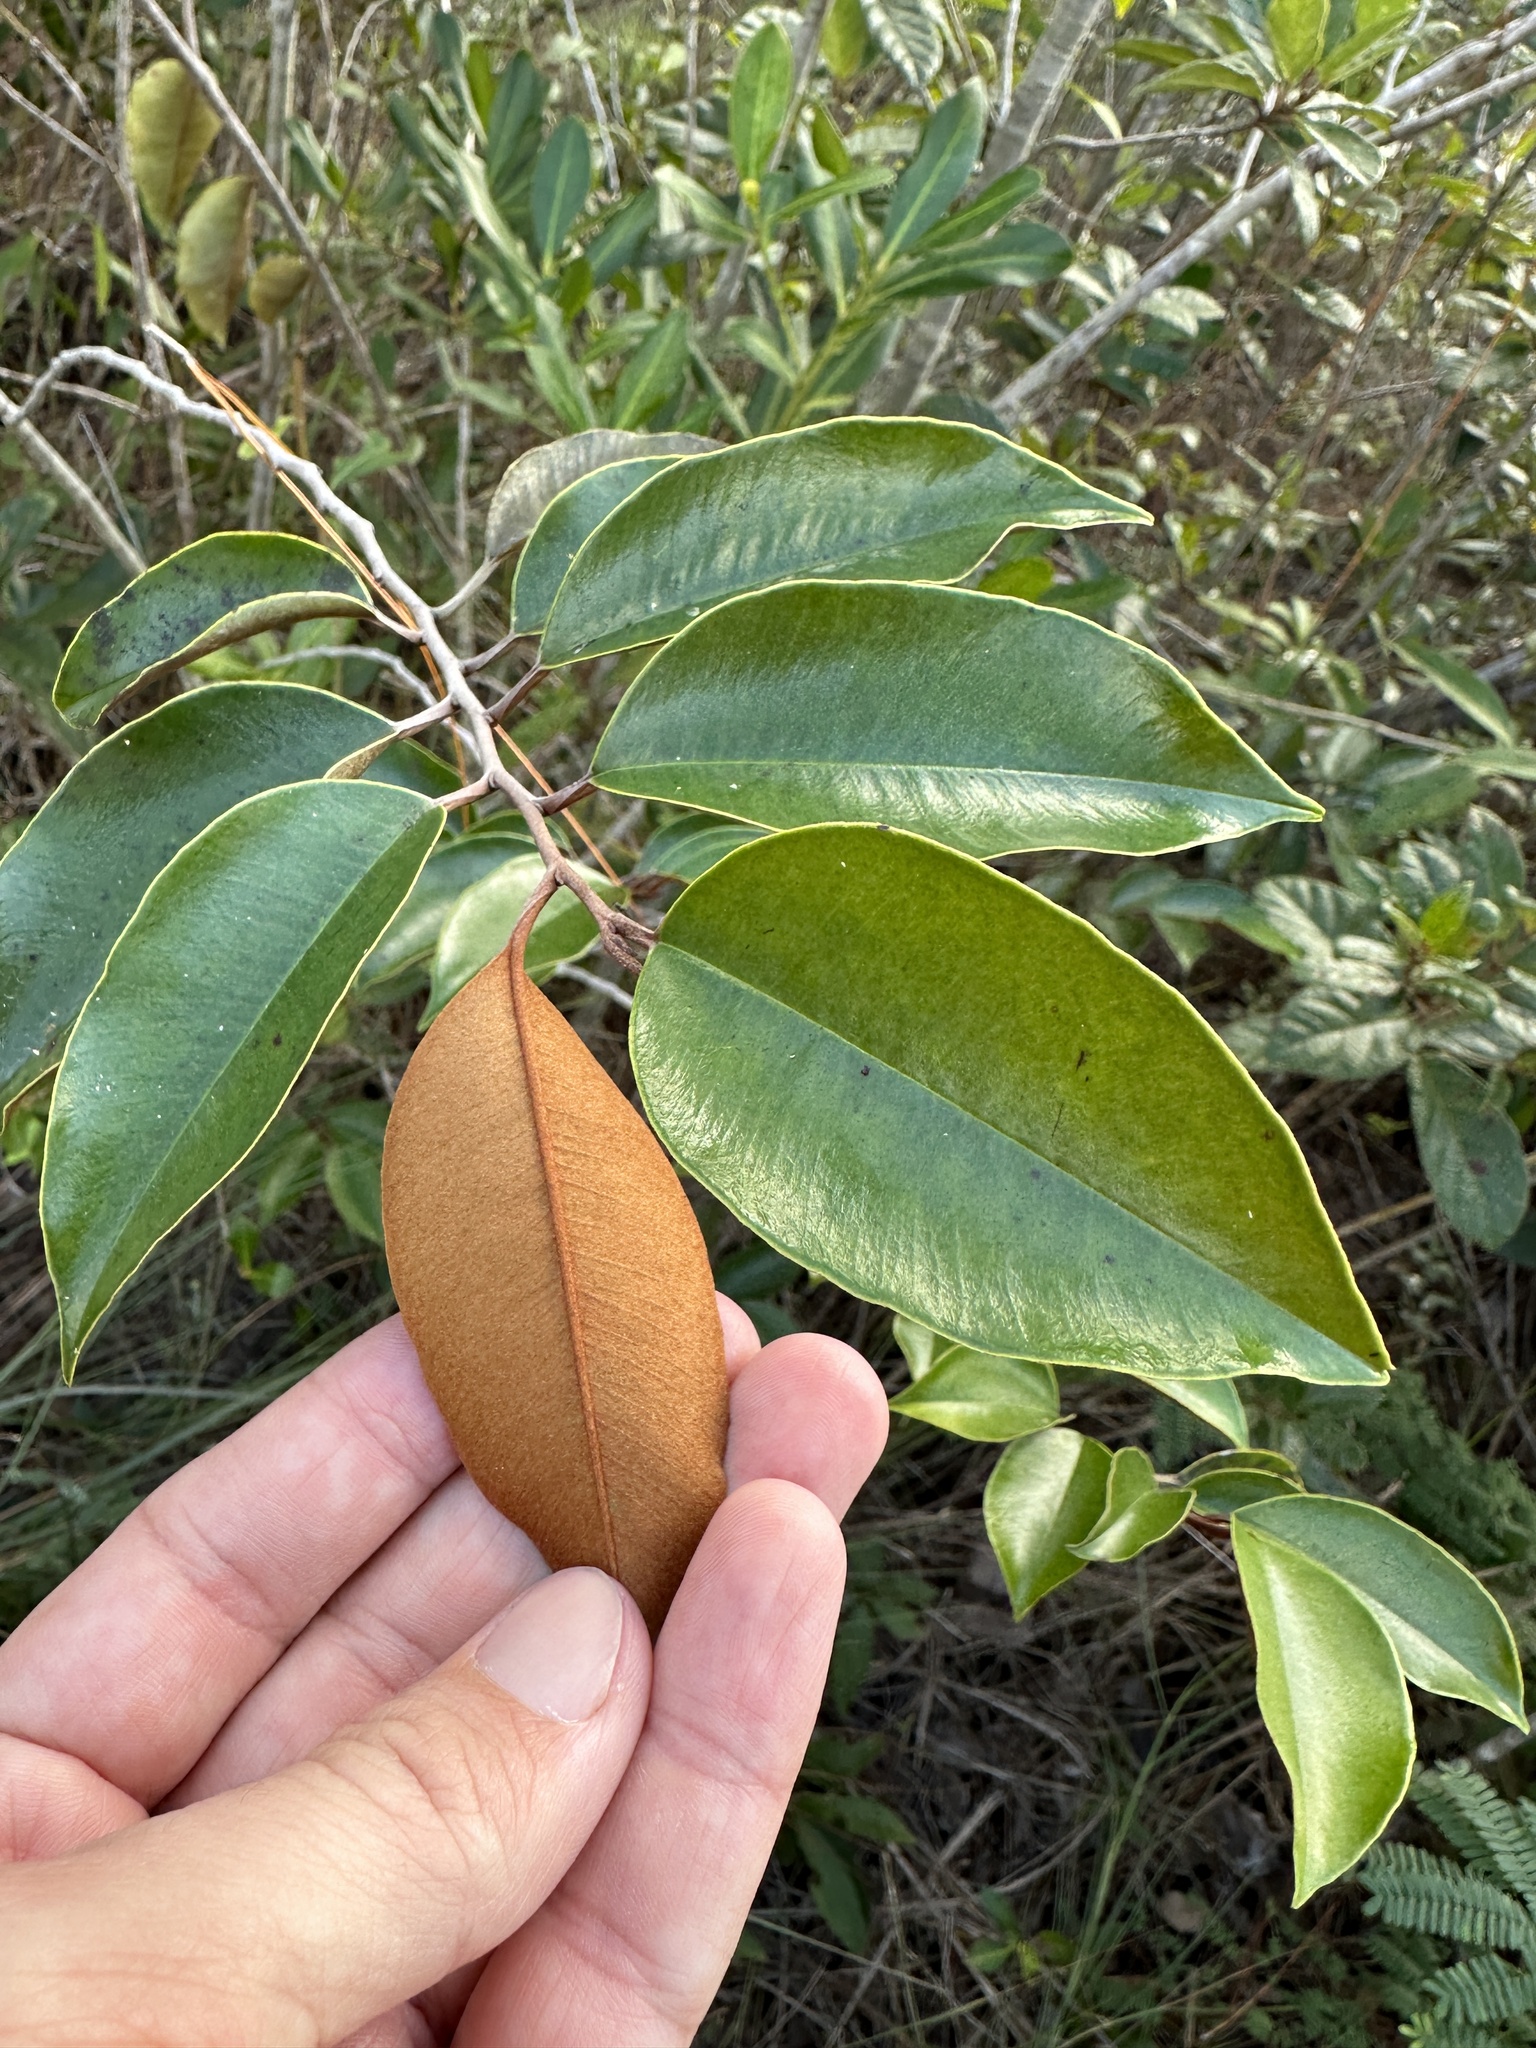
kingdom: Plantae
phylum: Tracheophyta
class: Magnoliopsida
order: Ericales
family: Sapotaceae
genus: Chrysophyllum
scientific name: Chrysophyllum oliviforme
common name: Satinleaf
